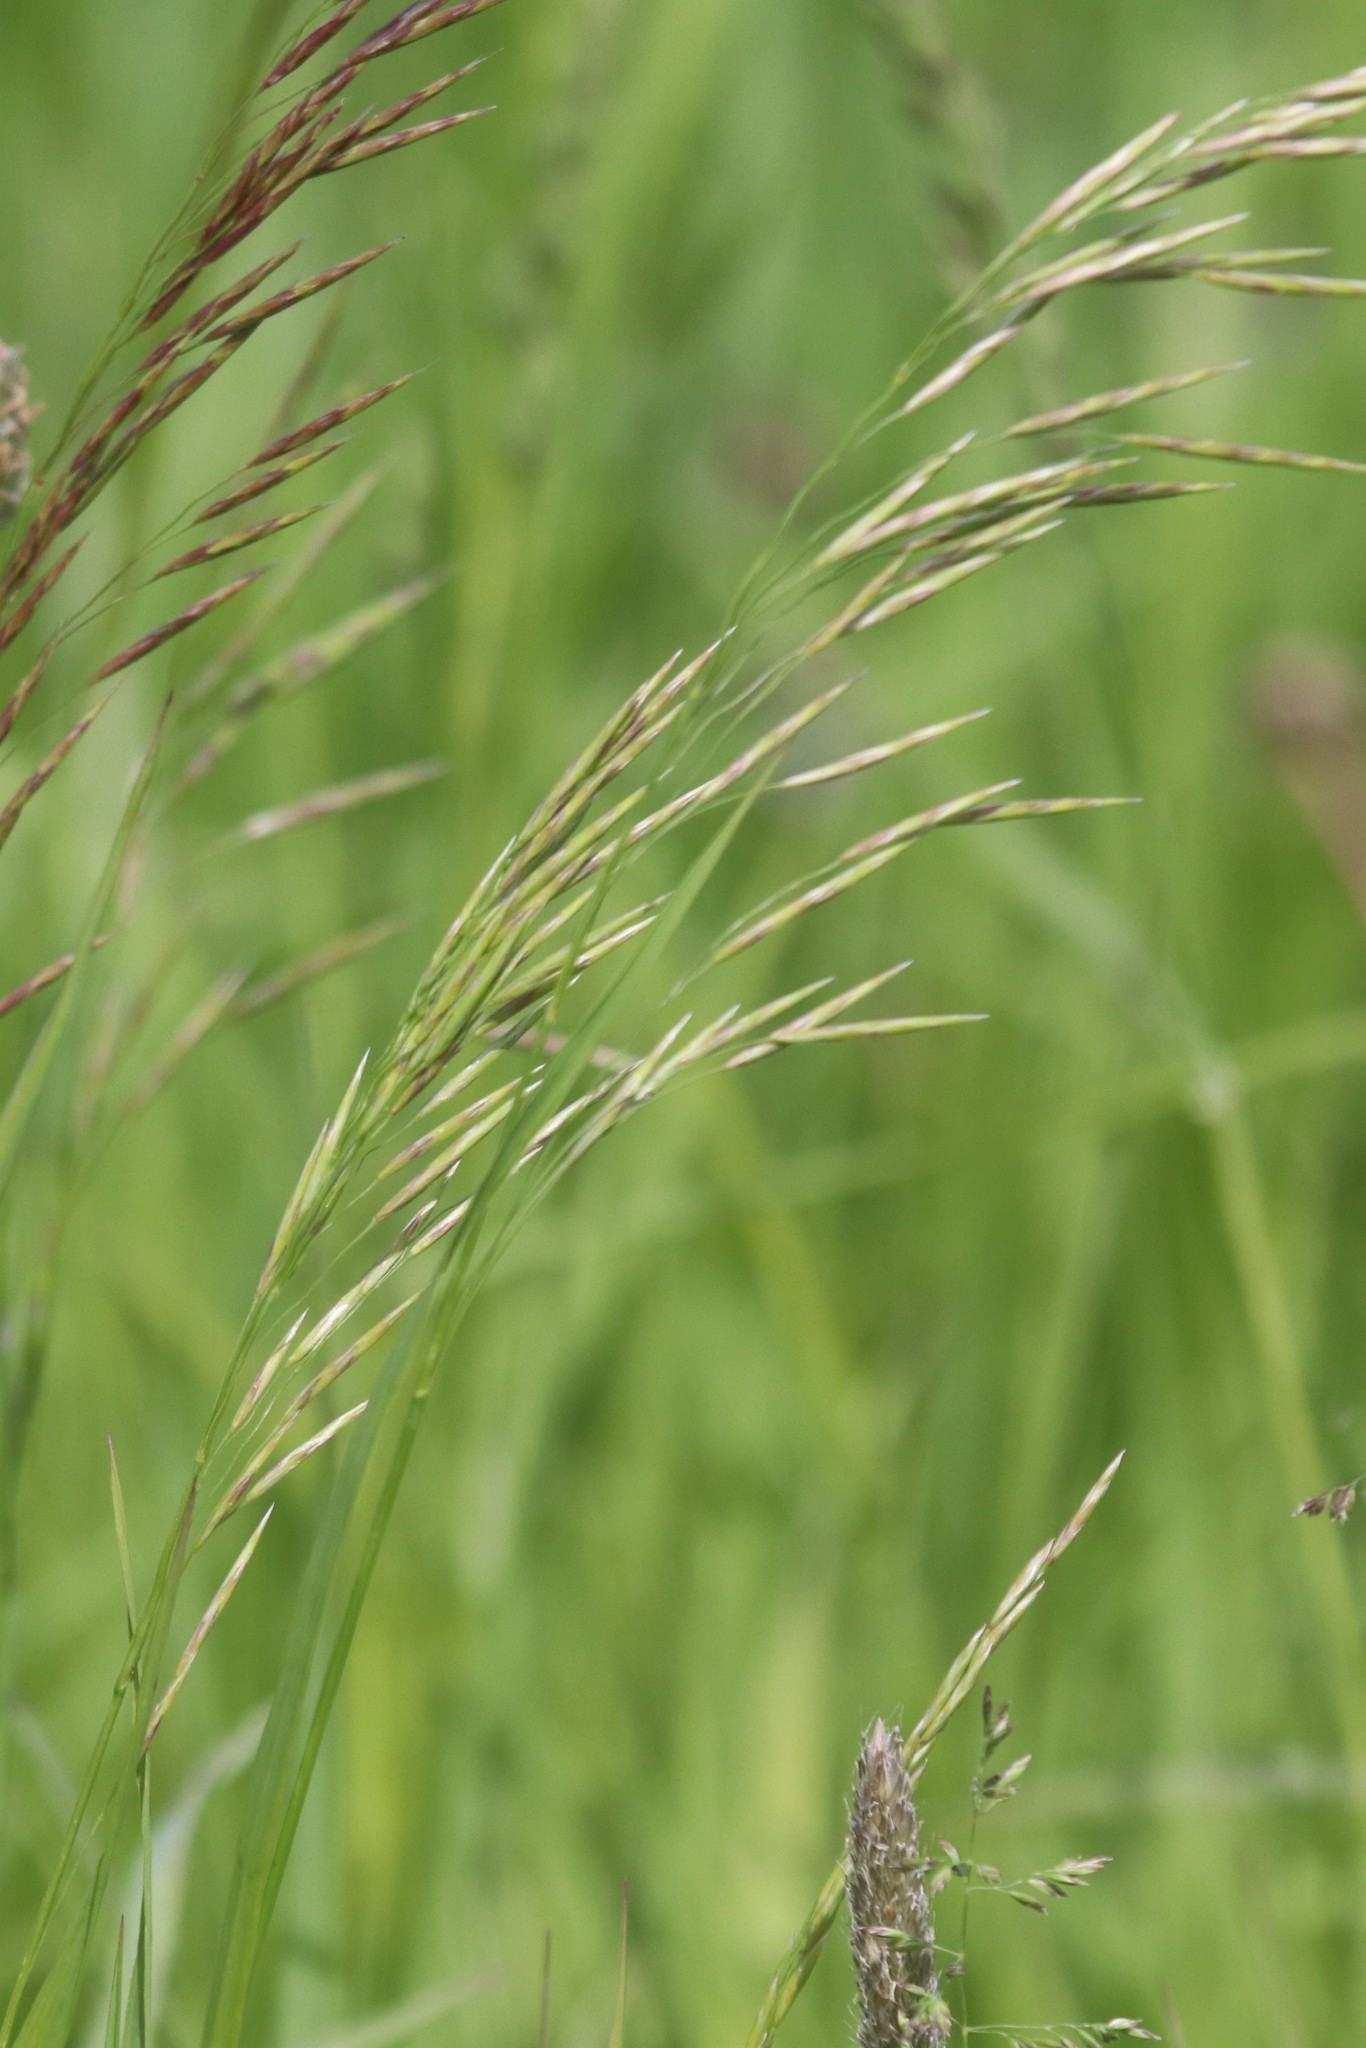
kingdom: Plantae
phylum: Tracheophyta
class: Liliopsida
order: Poales
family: Poaceae
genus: Bromus
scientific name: Bromus inermis
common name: Smooth brome
